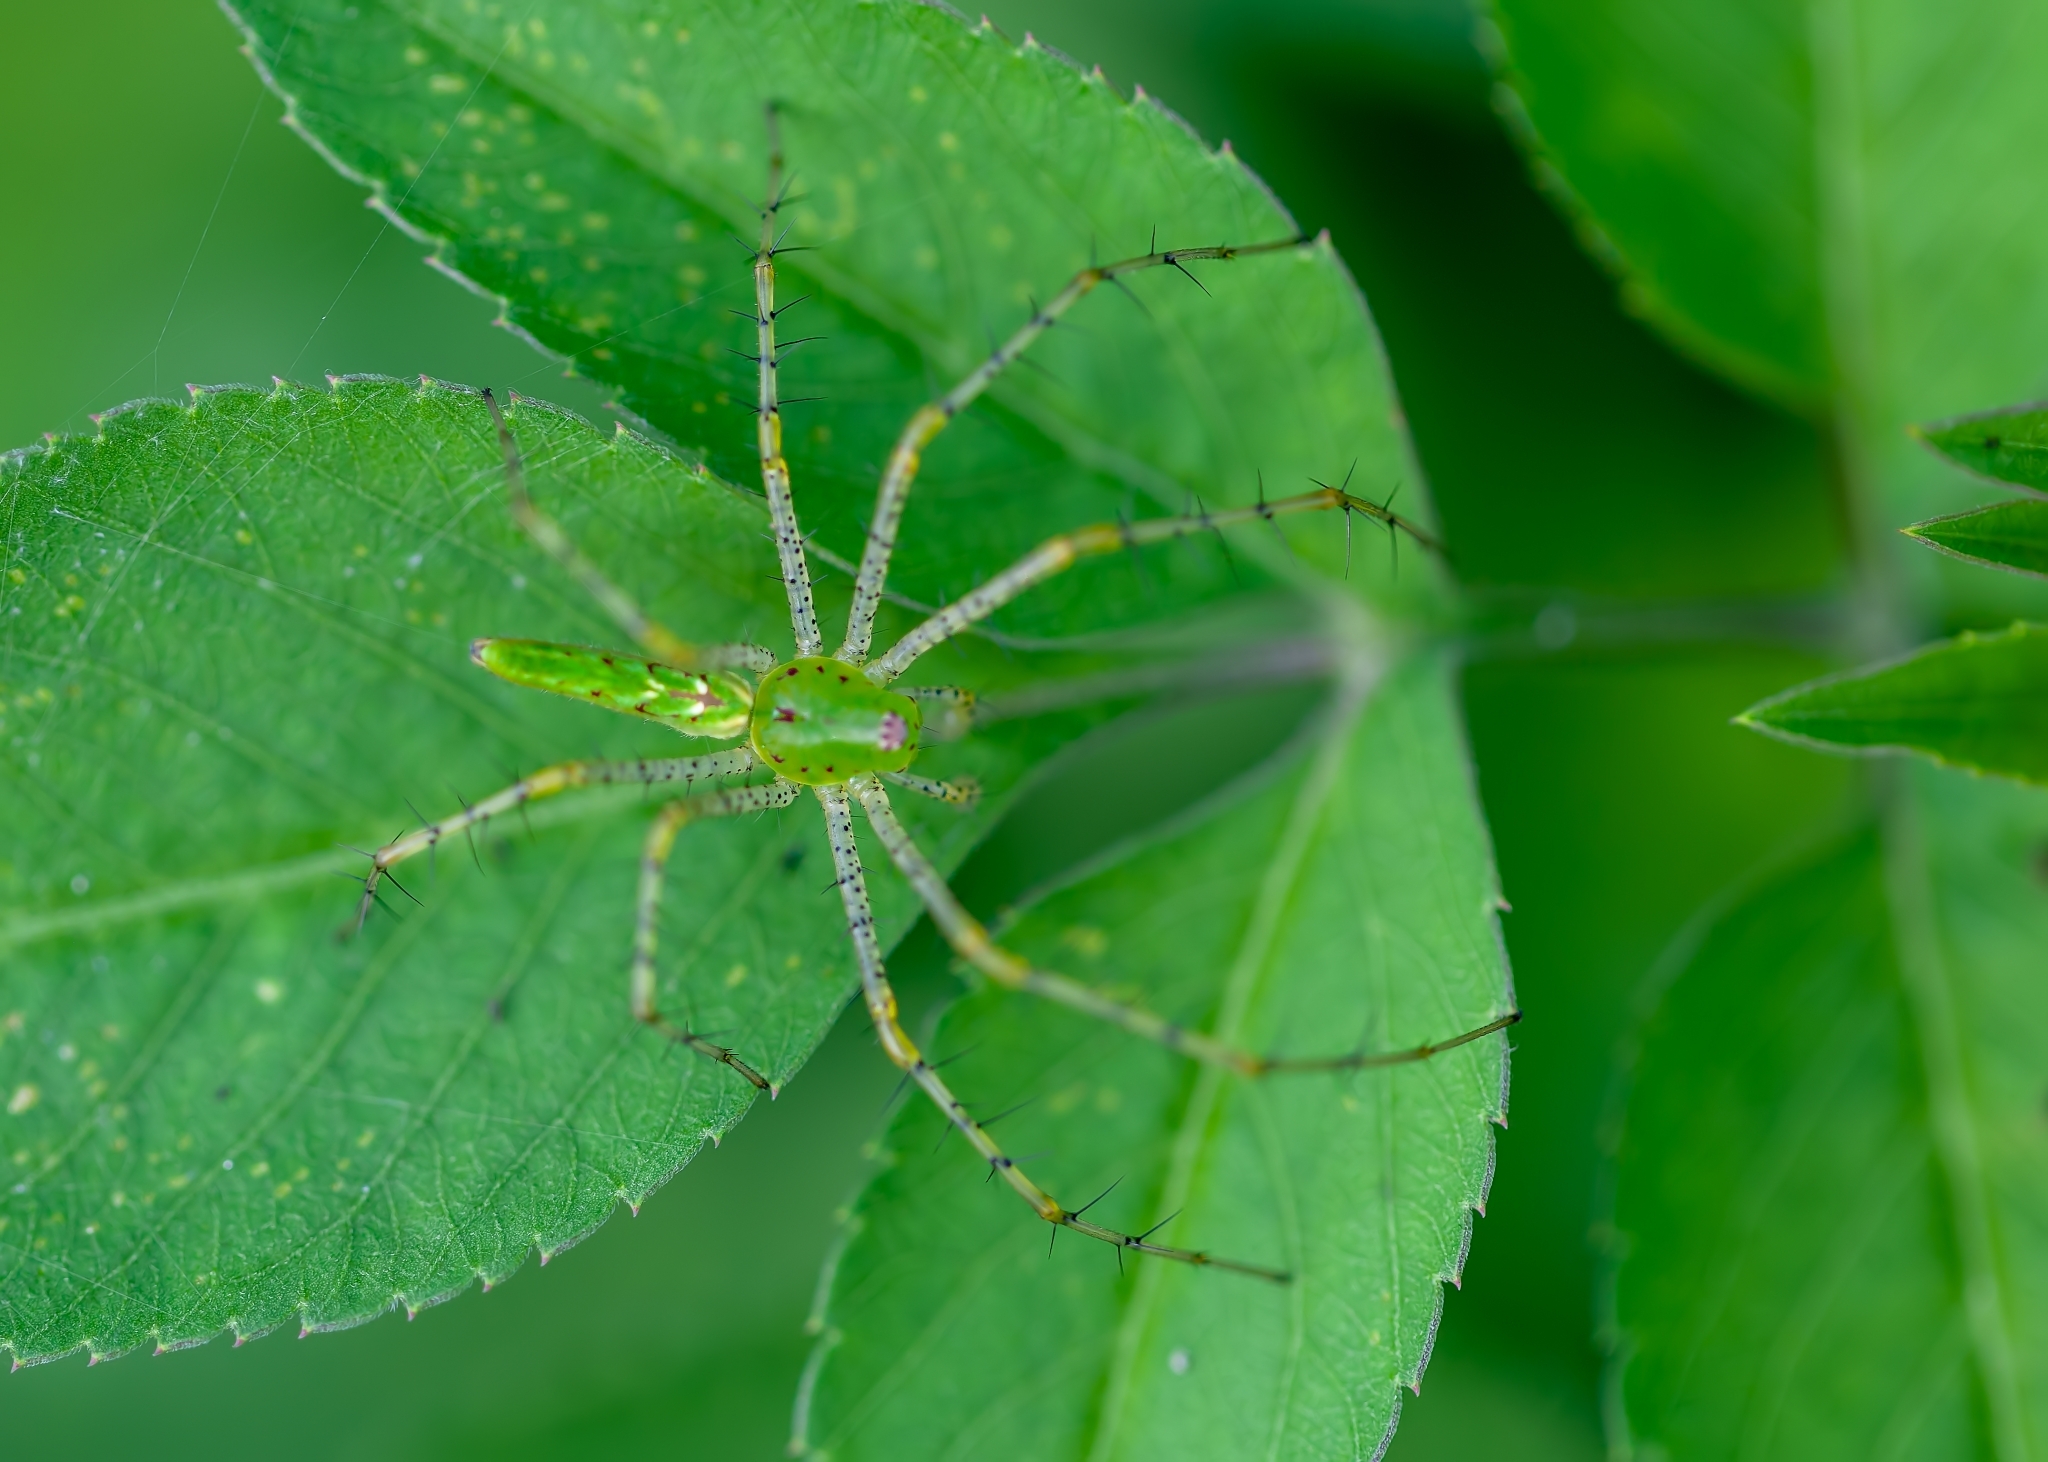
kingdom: Animalia
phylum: Arthropoda
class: Arachnida
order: Araneae
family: Oxyopidae
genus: Peucetia
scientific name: Peucetia viridans
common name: Lynx spiders
